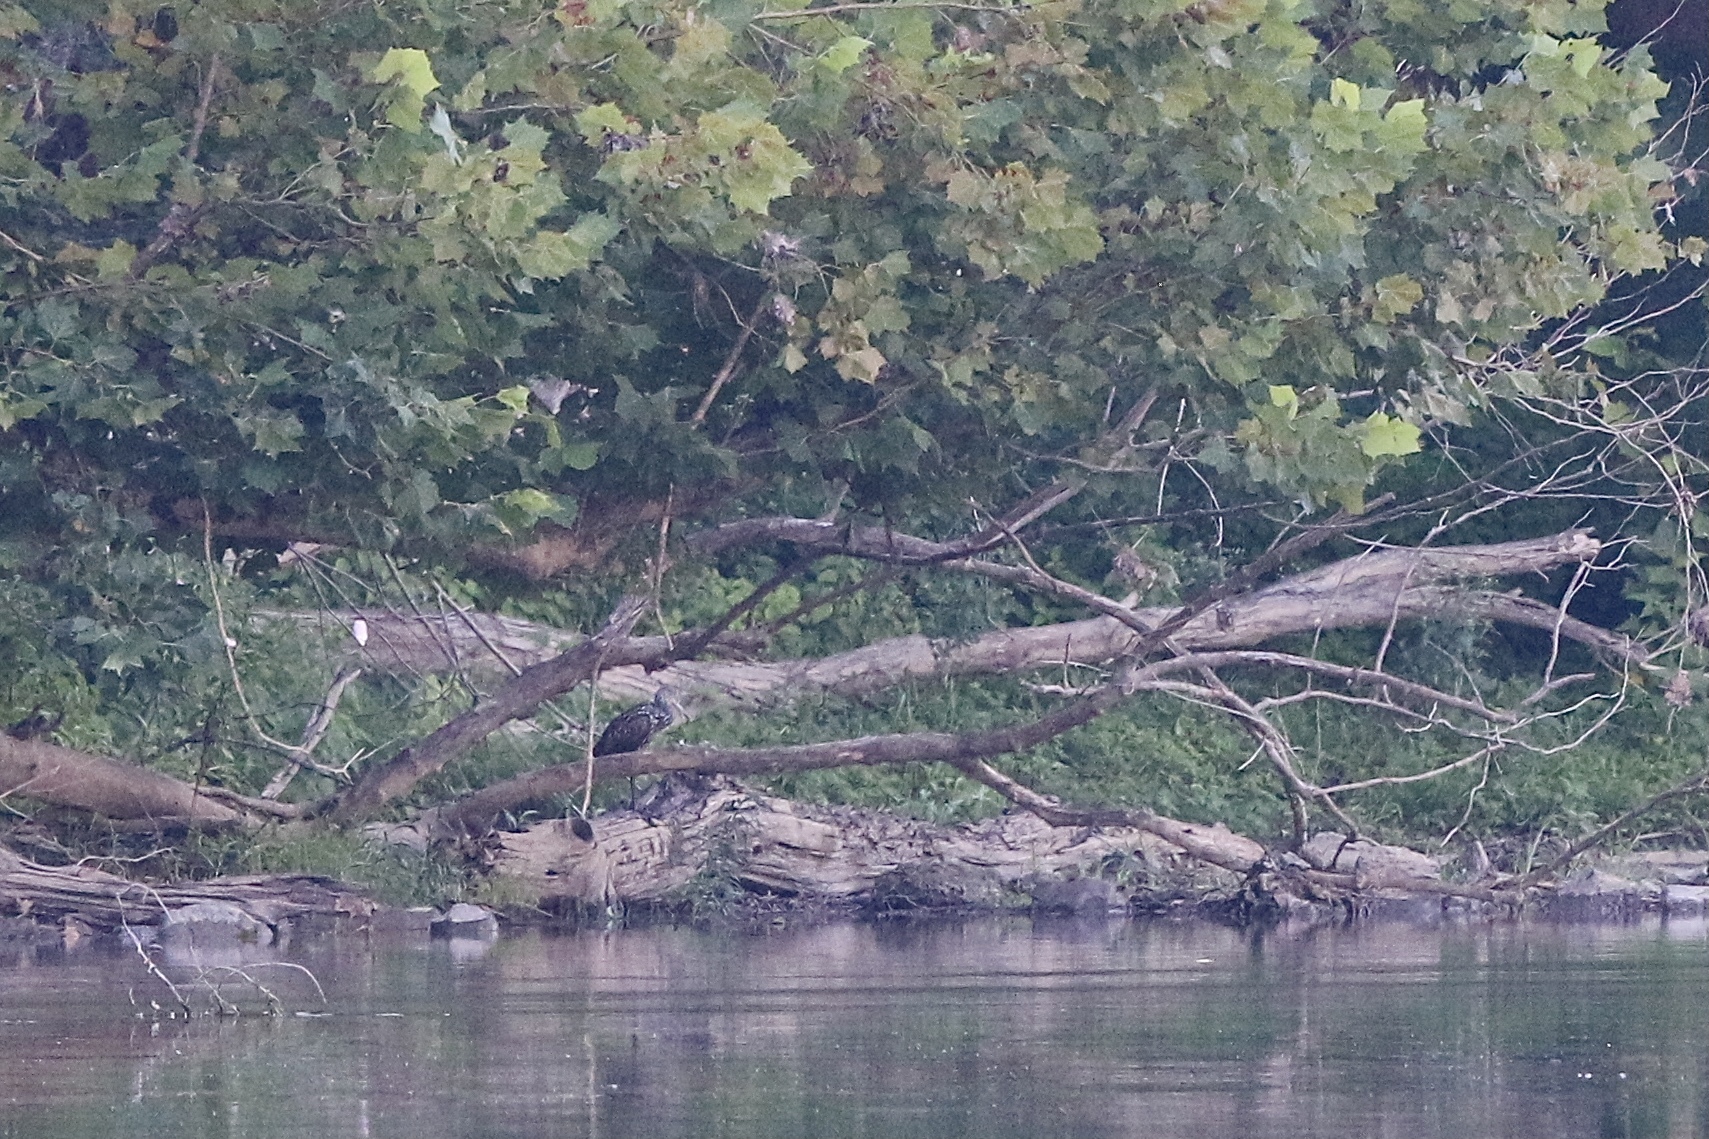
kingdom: Animalia
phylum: Chordata
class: Aves
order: Gruiformes
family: Aramidae
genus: Aramus
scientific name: Aramus guarauna
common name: Limpkin
